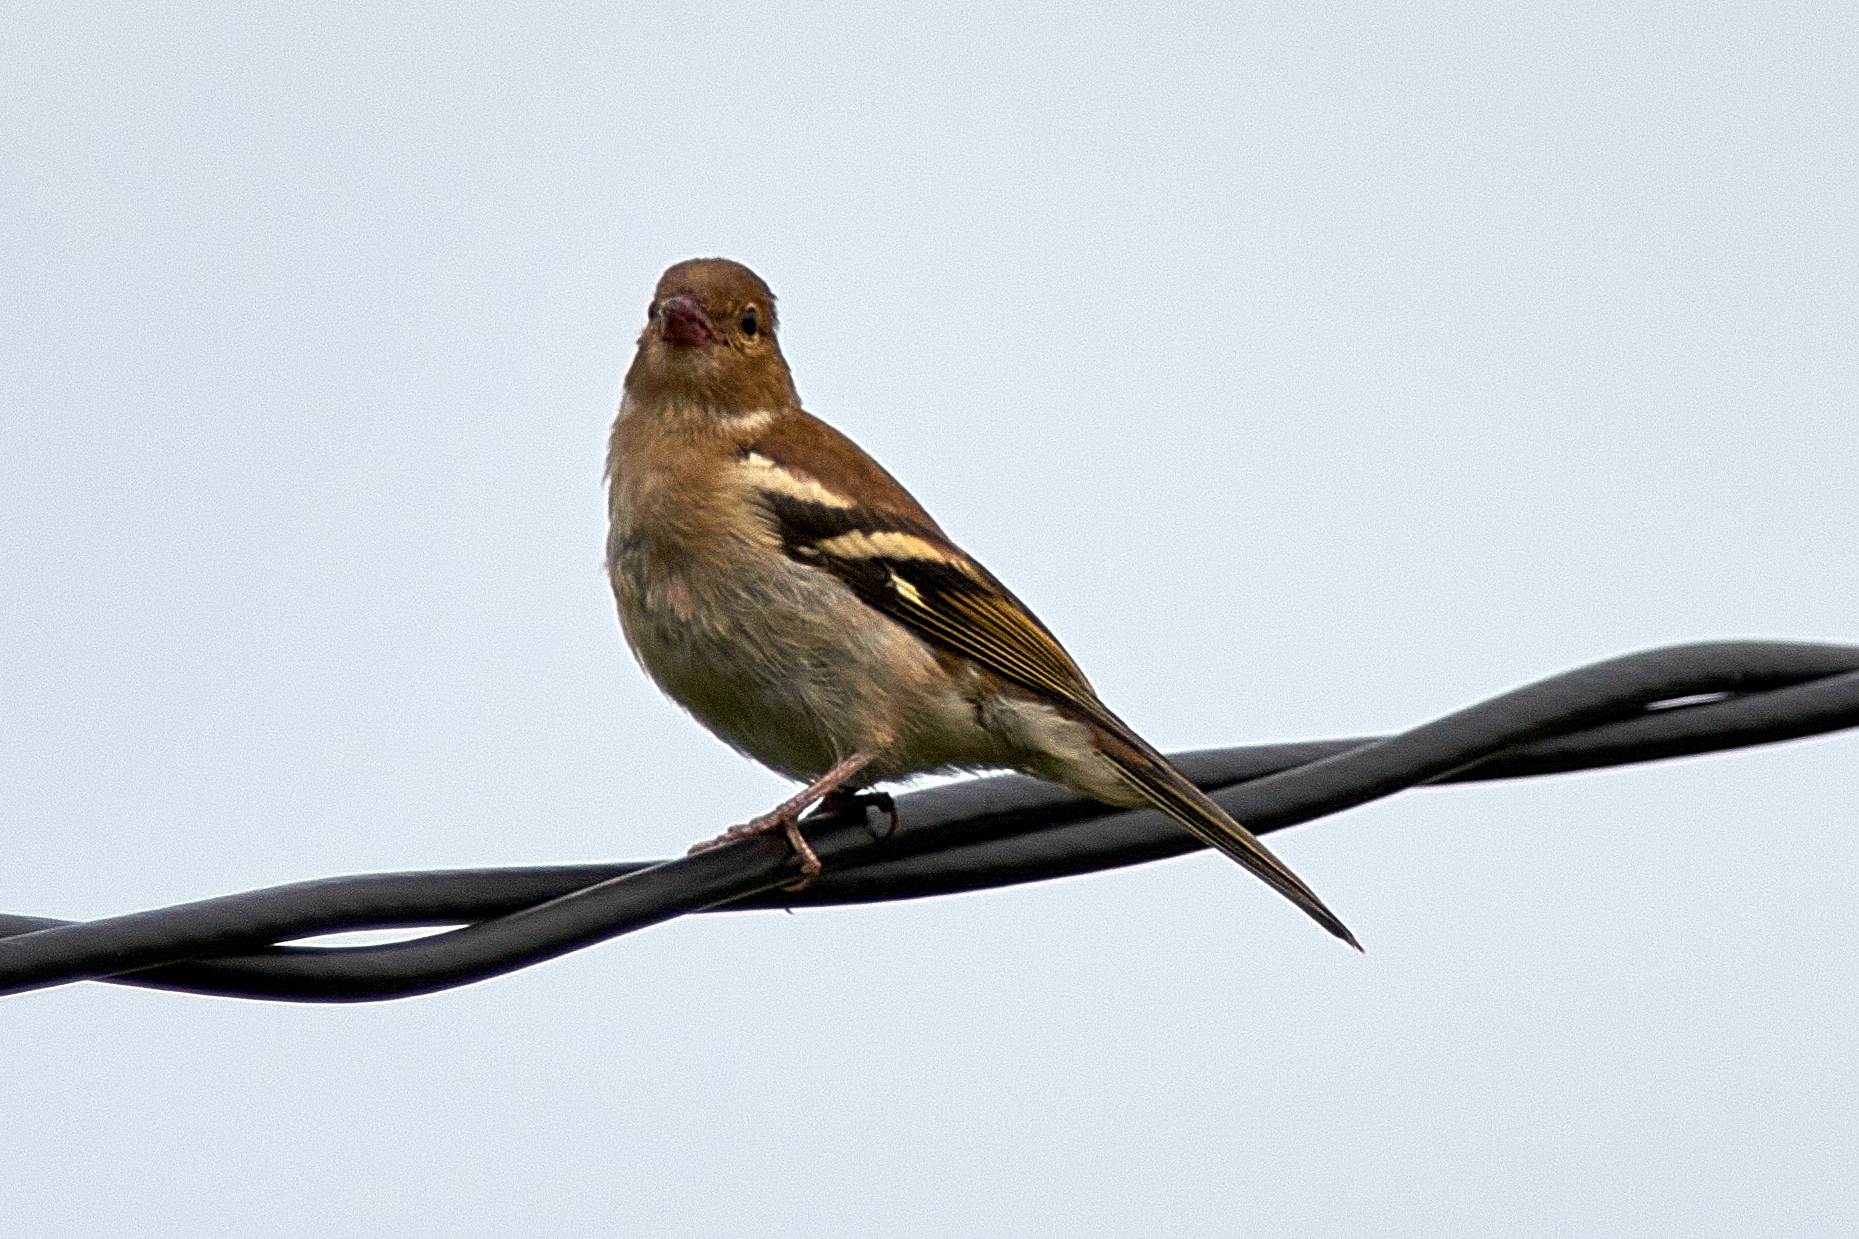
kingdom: Animalia
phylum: Chordata
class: Aves
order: Passeriformes
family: Fringillidae
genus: Fringilla
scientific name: Fringilla coelebs
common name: Common chaffinch
